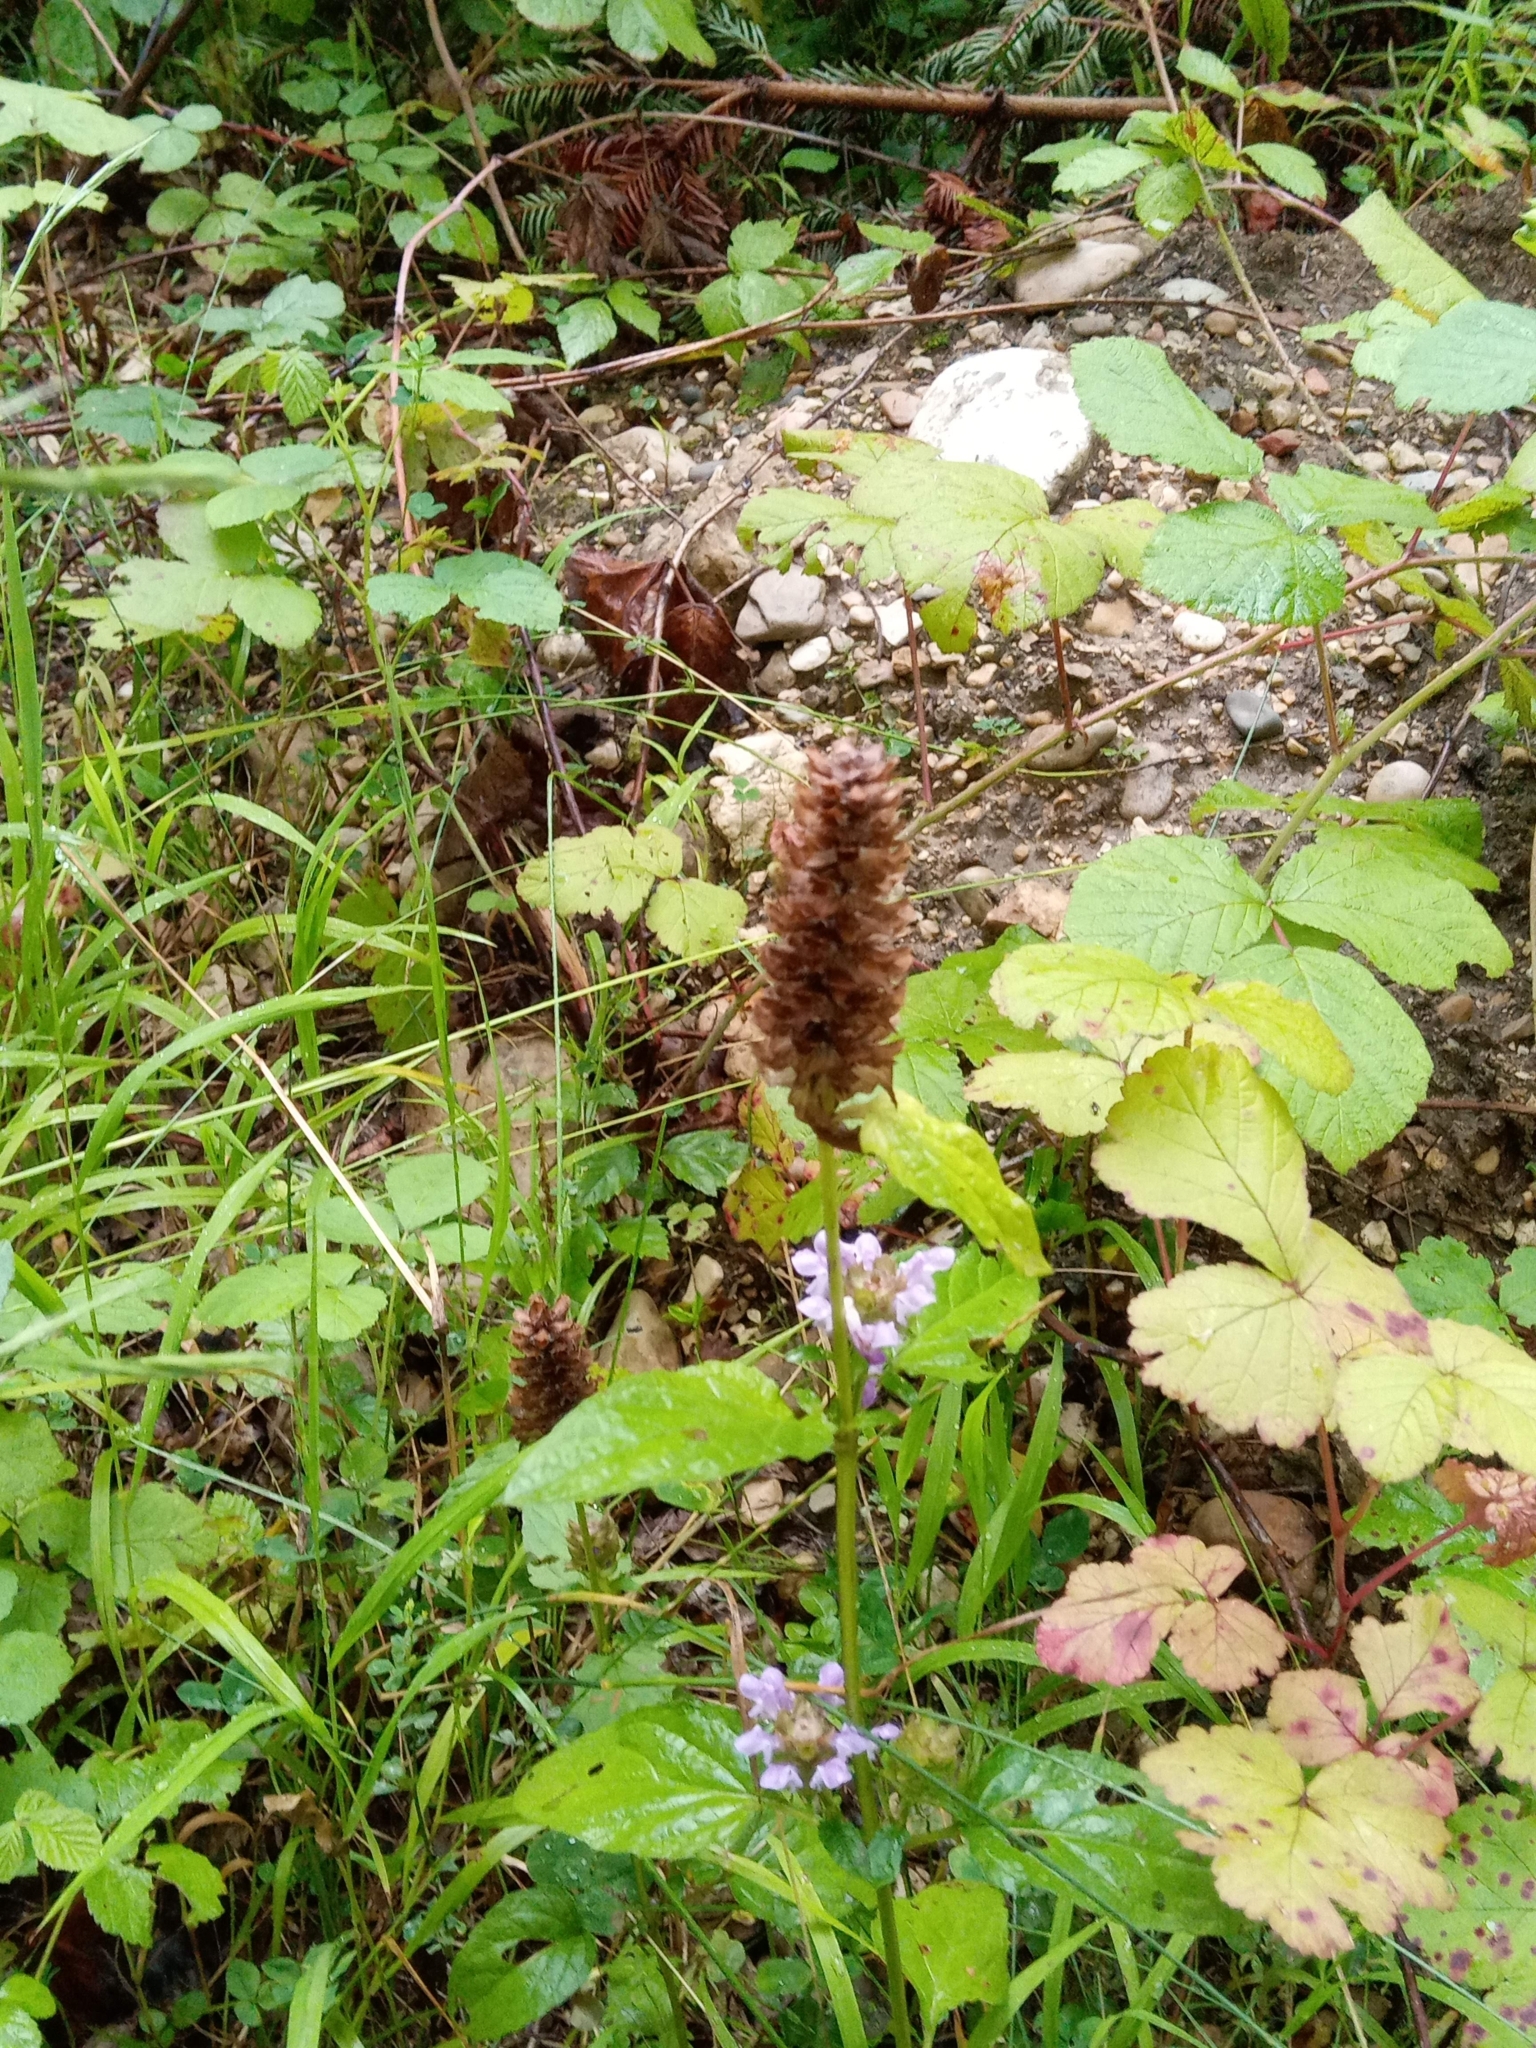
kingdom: Plantae
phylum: Tracheophyta
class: Magnoliopsida
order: Lamiales
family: Lamiaceae
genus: Prunella
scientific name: Prunella vulgaris
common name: Heal-all
